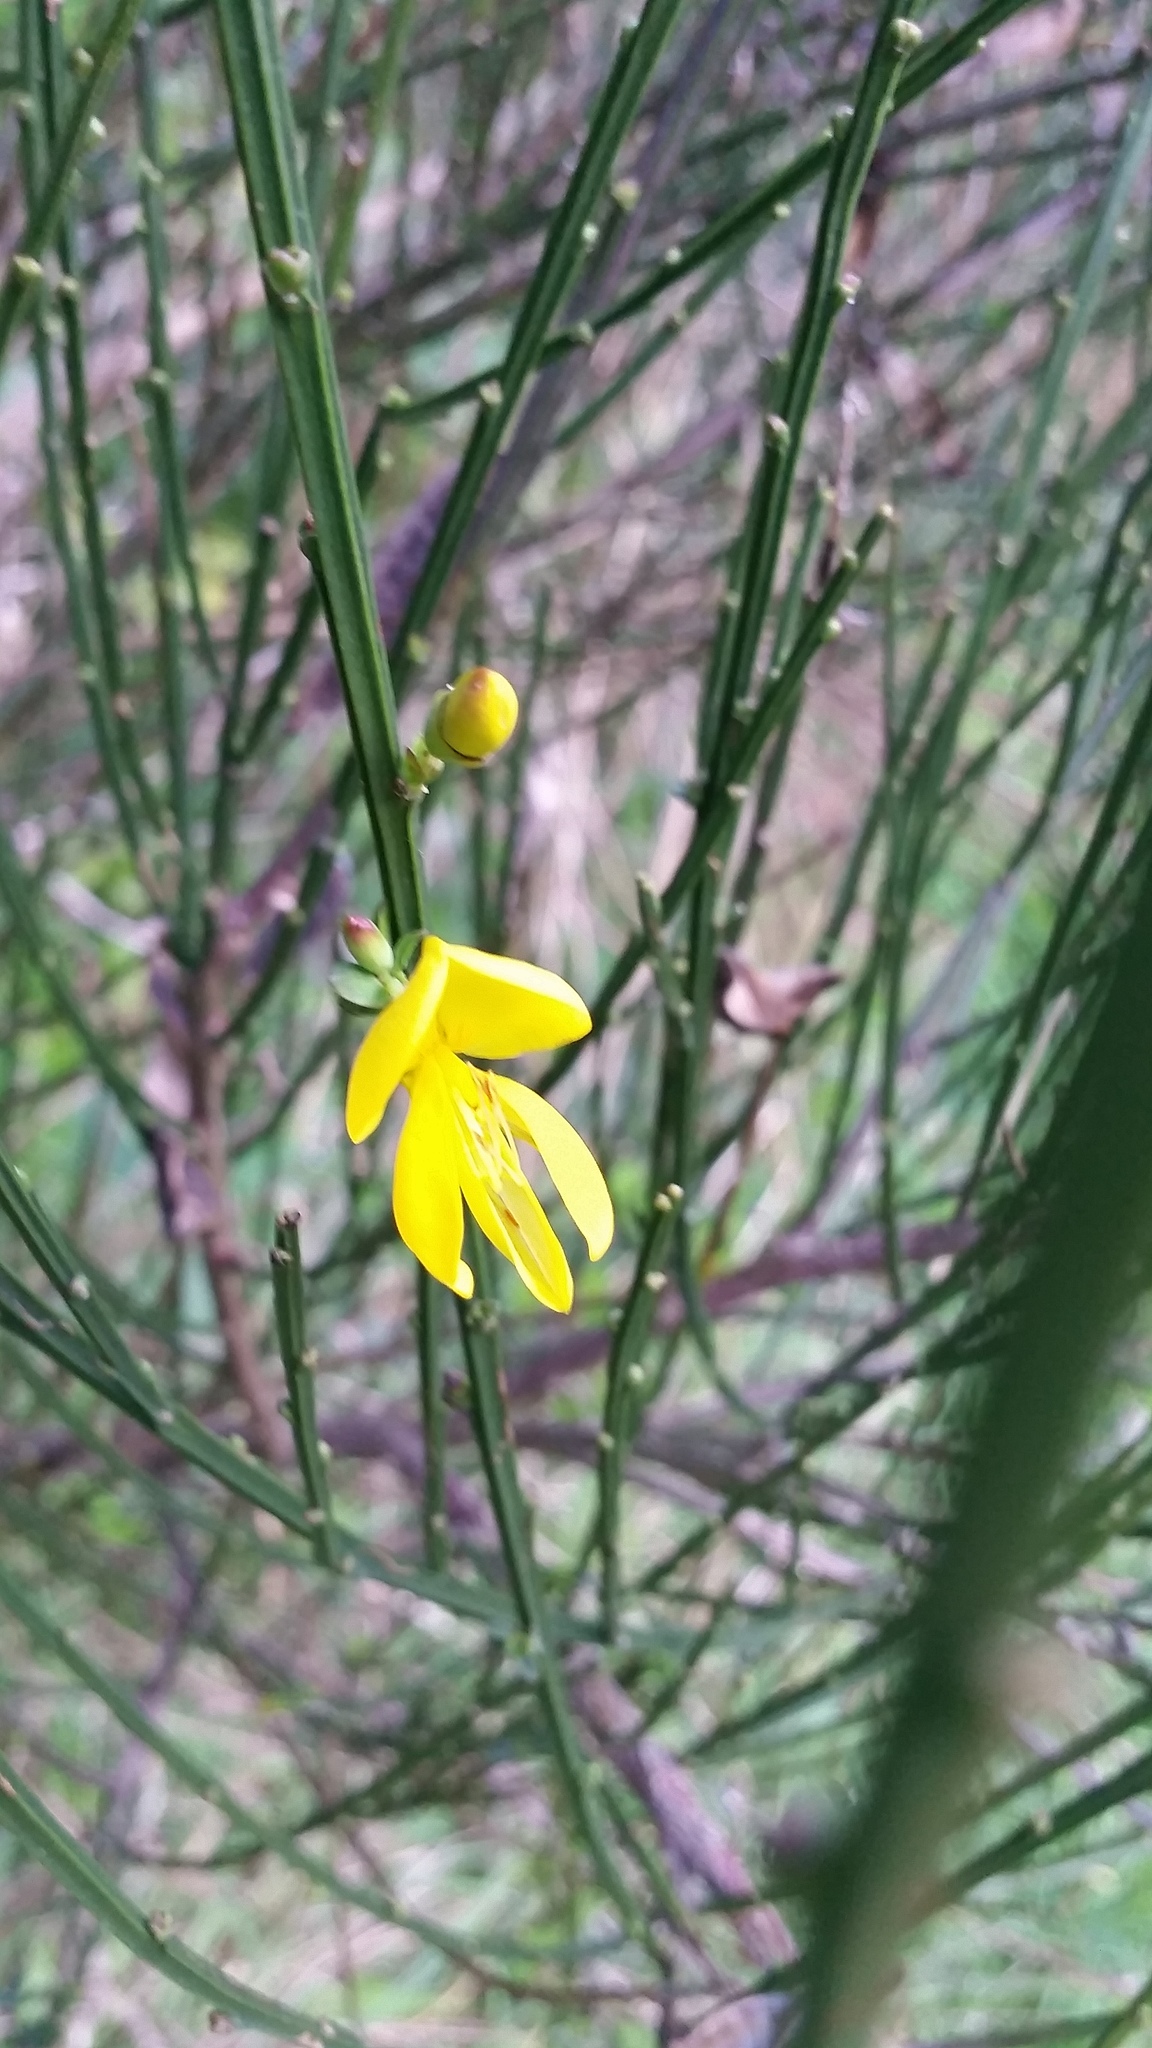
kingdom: Plantae
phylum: Tracheophyta
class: Magnoliopsida
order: Fabales
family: Fabaceae
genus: Cytisus
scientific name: Cytisus scoparius
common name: Scotch broom
